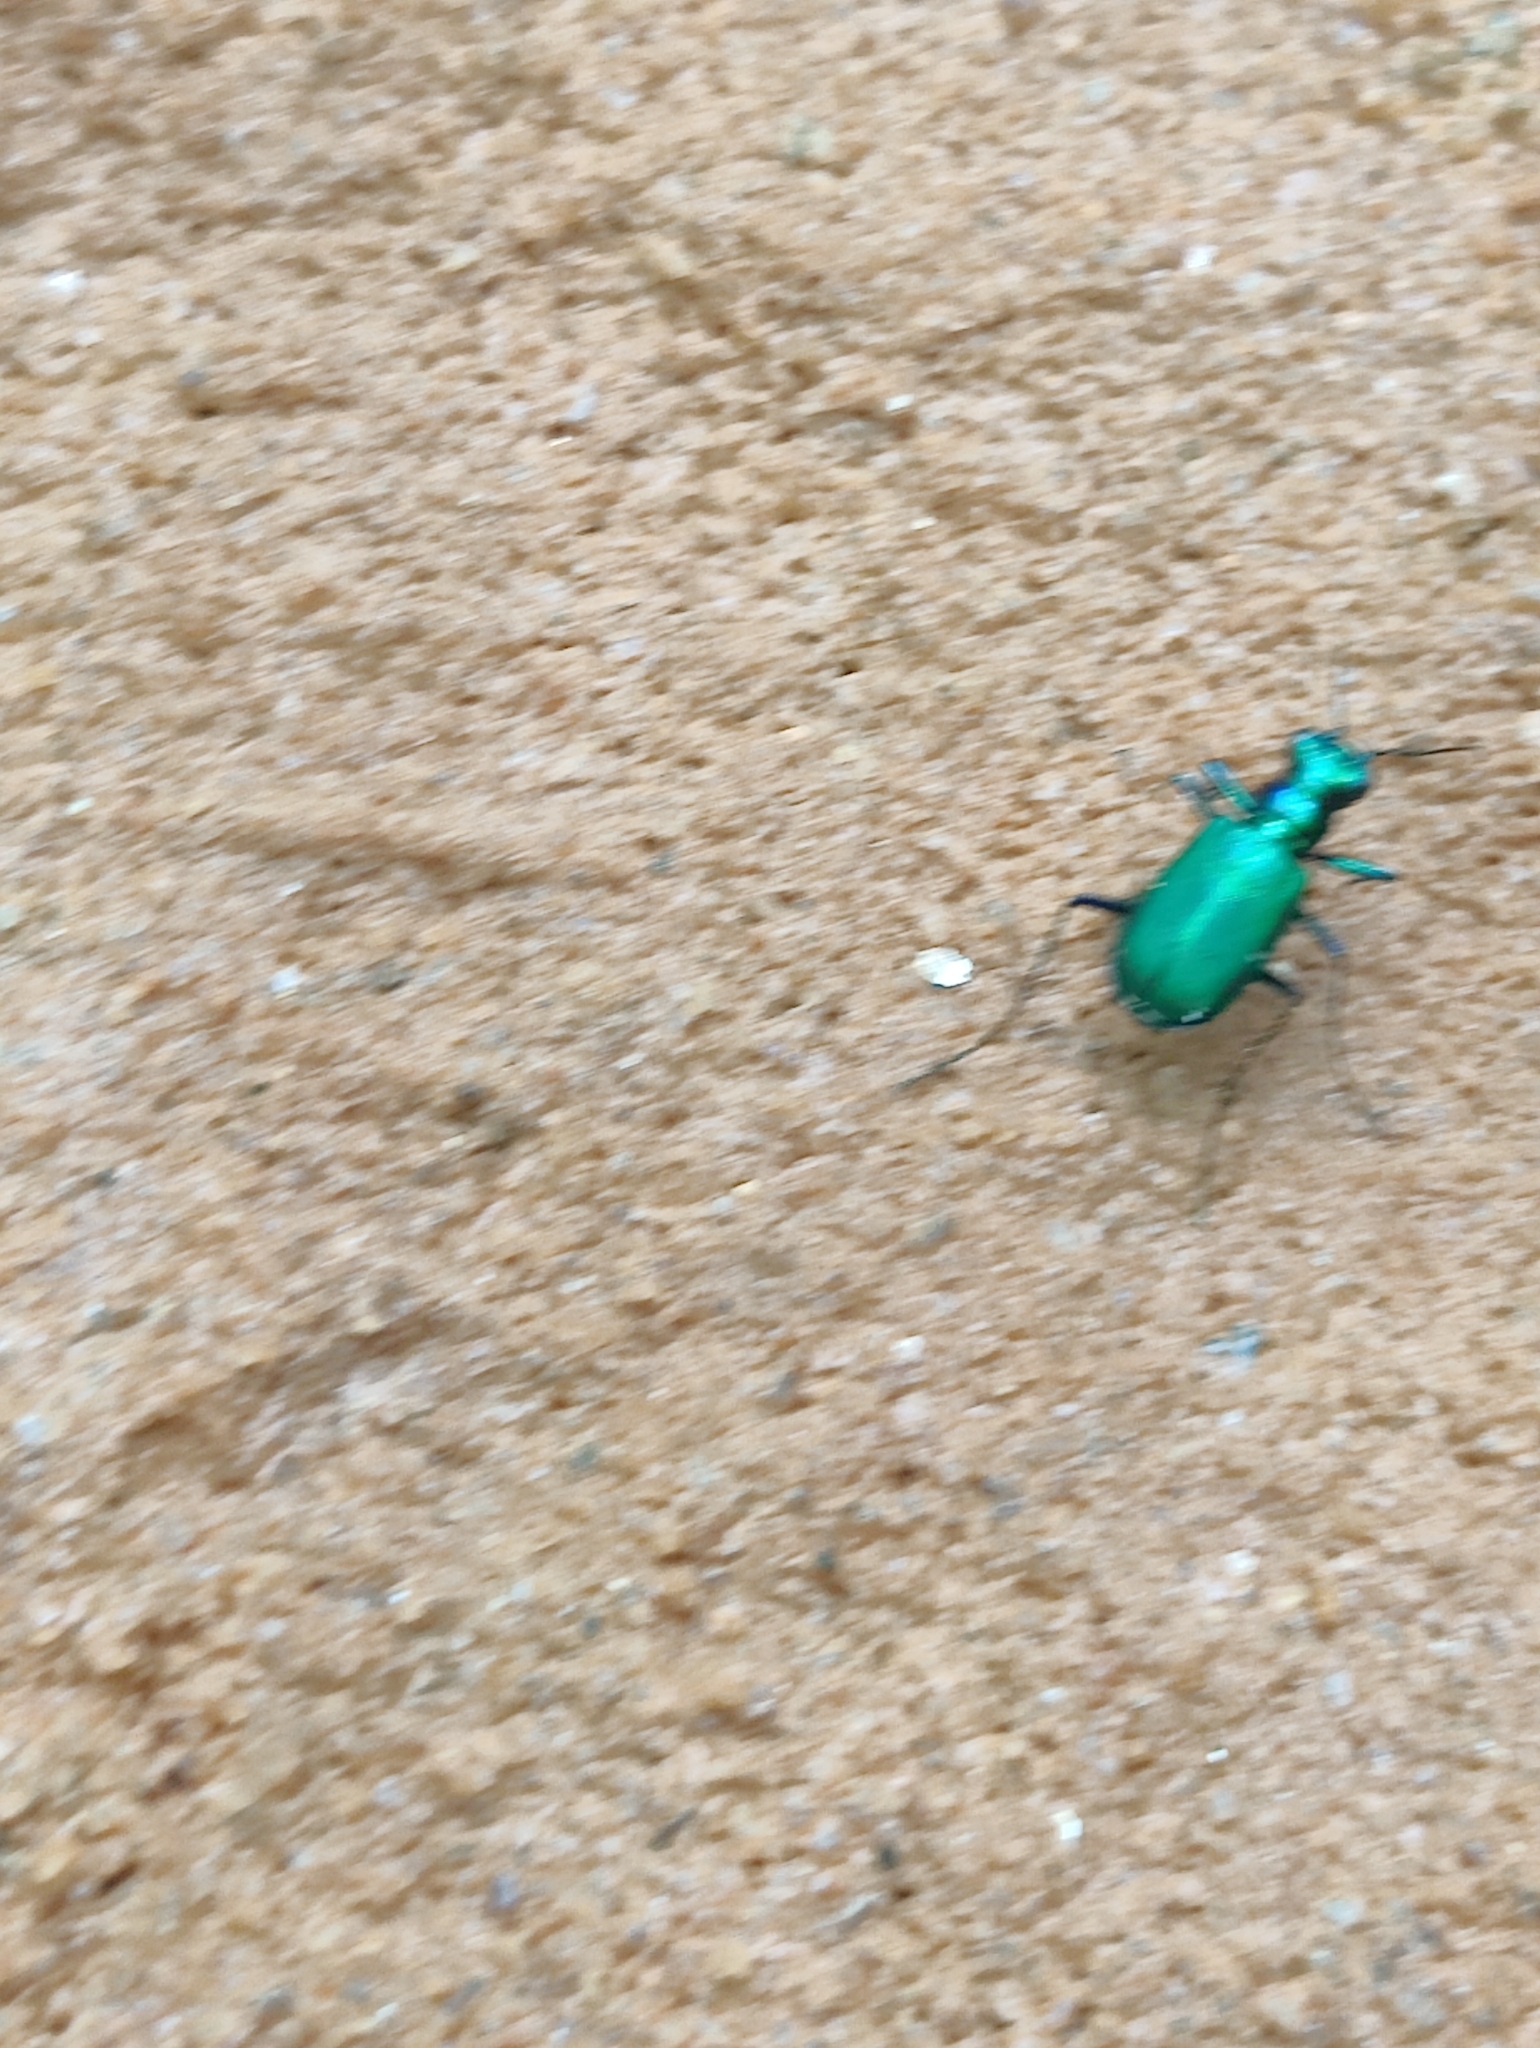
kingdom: Animalia
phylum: Arthropoda
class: Insecta
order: Coleoptera
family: Carabidae
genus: Cicindela
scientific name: Cicindela sexguttata
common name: Six-spotted tiger beetle
